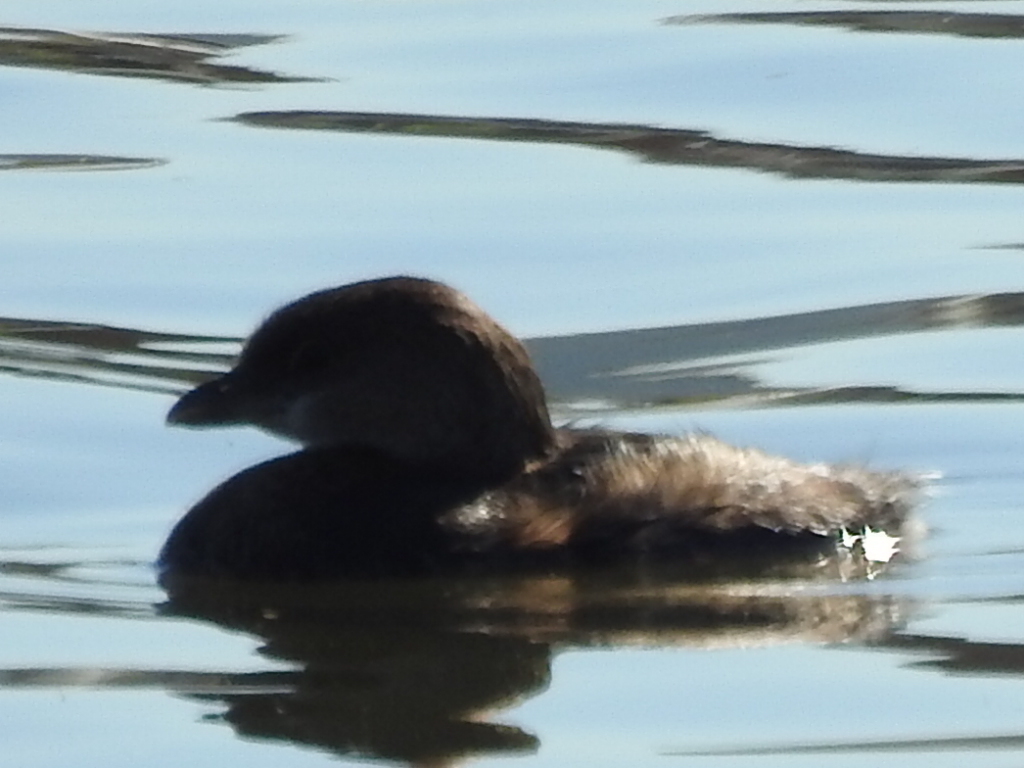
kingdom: Animalia
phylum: Chordata
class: Aves
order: Podicipediformes
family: Podicipedidae
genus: Podilymbus
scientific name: Podilymbus podiceps
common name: Pied-billed grebe
